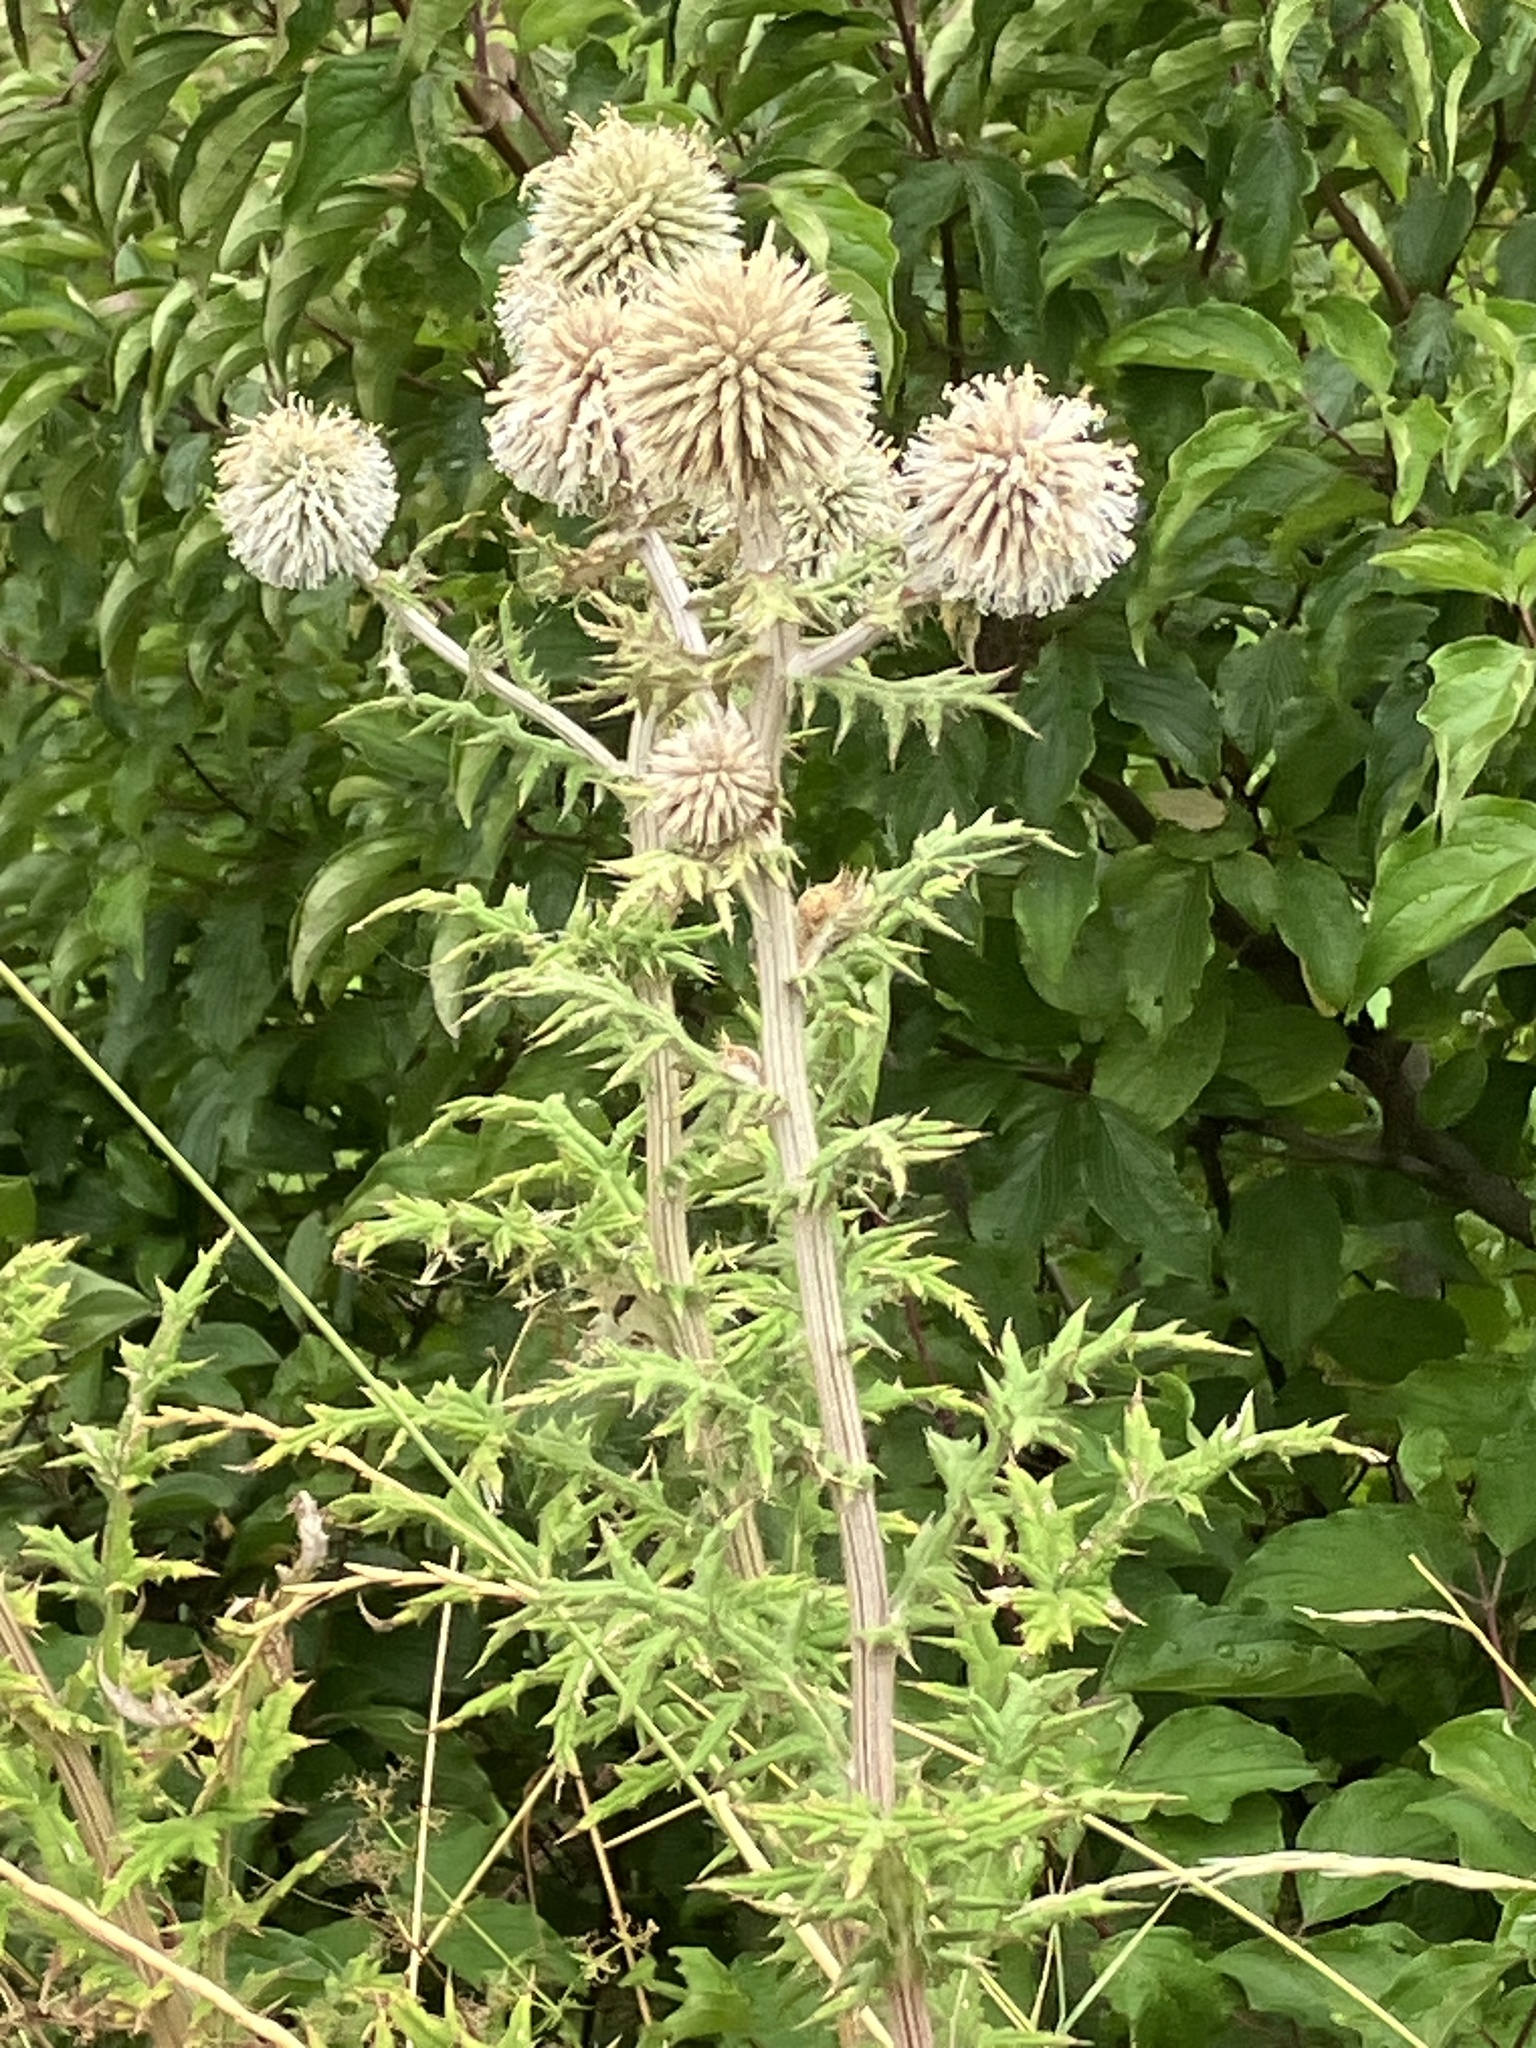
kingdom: Plantae
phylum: Tracheophyta
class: Magnoliopsida
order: Asterales
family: Asteraceae
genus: Echinops
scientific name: Echinops sphaerocephalus
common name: Glandular globe-thistle
